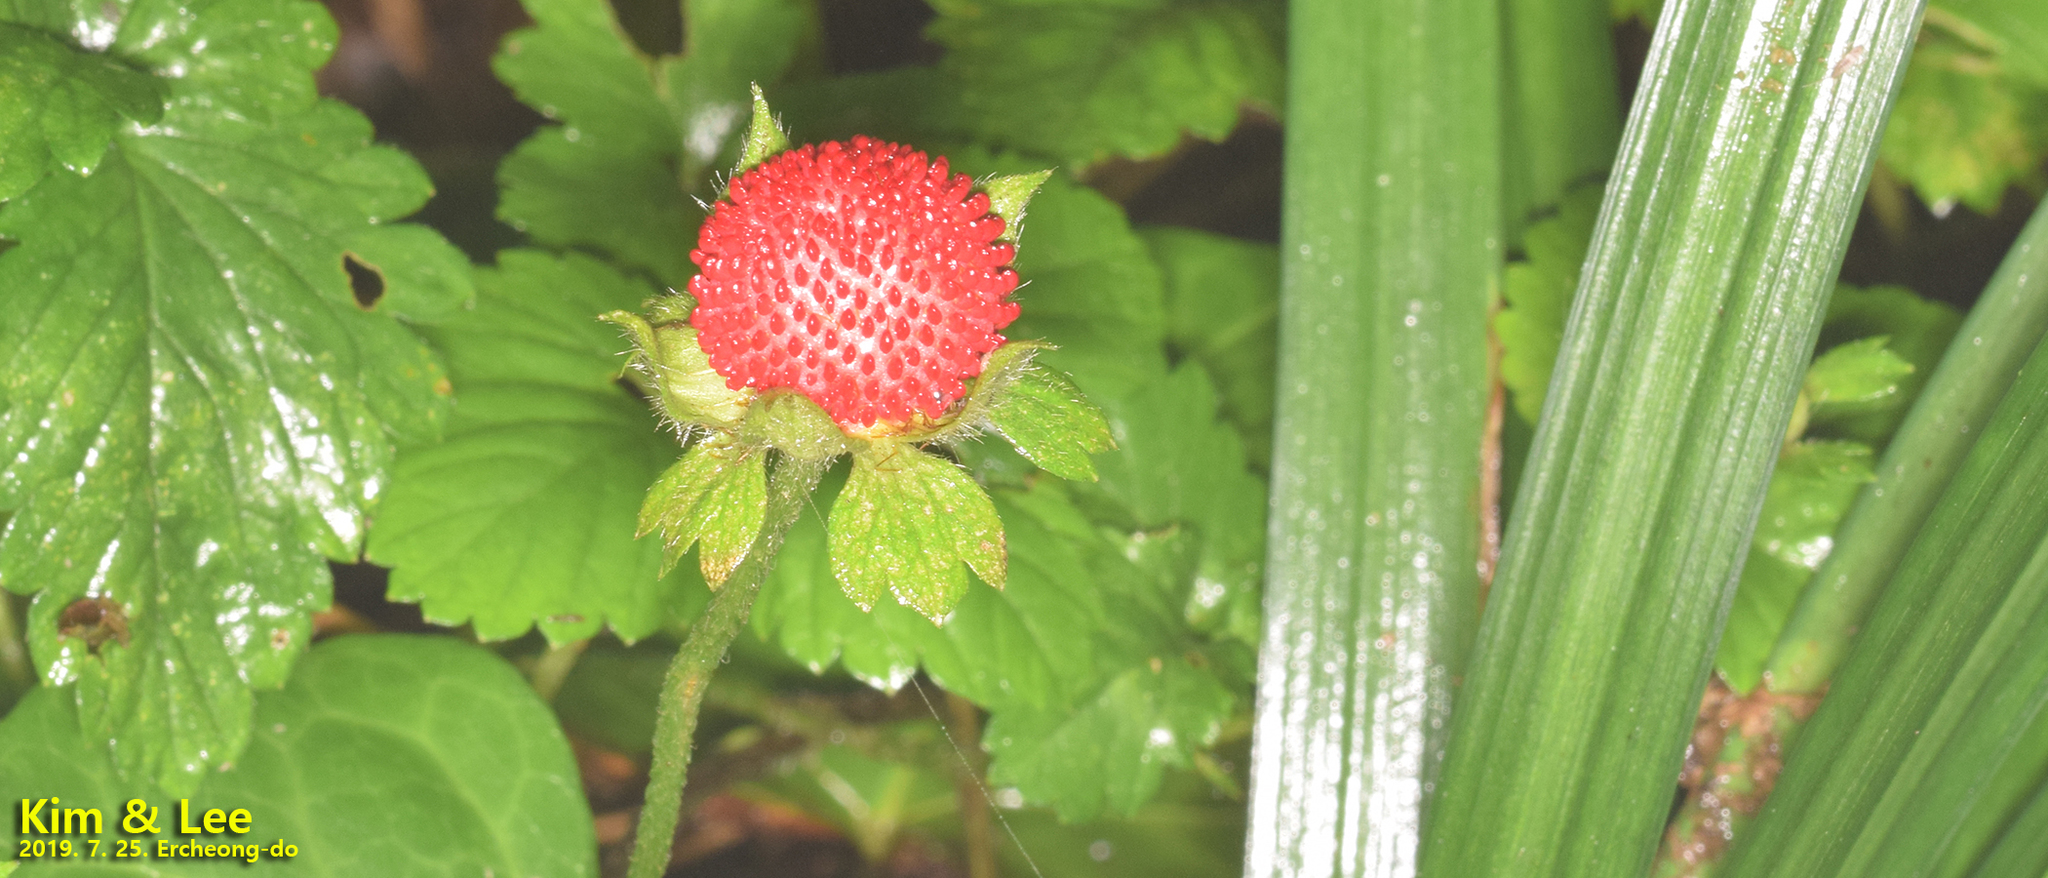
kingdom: Plantae
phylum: Tracheophyta
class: Magnoliopsida
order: Rosales
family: Rosaceae
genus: Potentilla
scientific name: Potentilla indica
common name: Yellow-flowered strawberry
